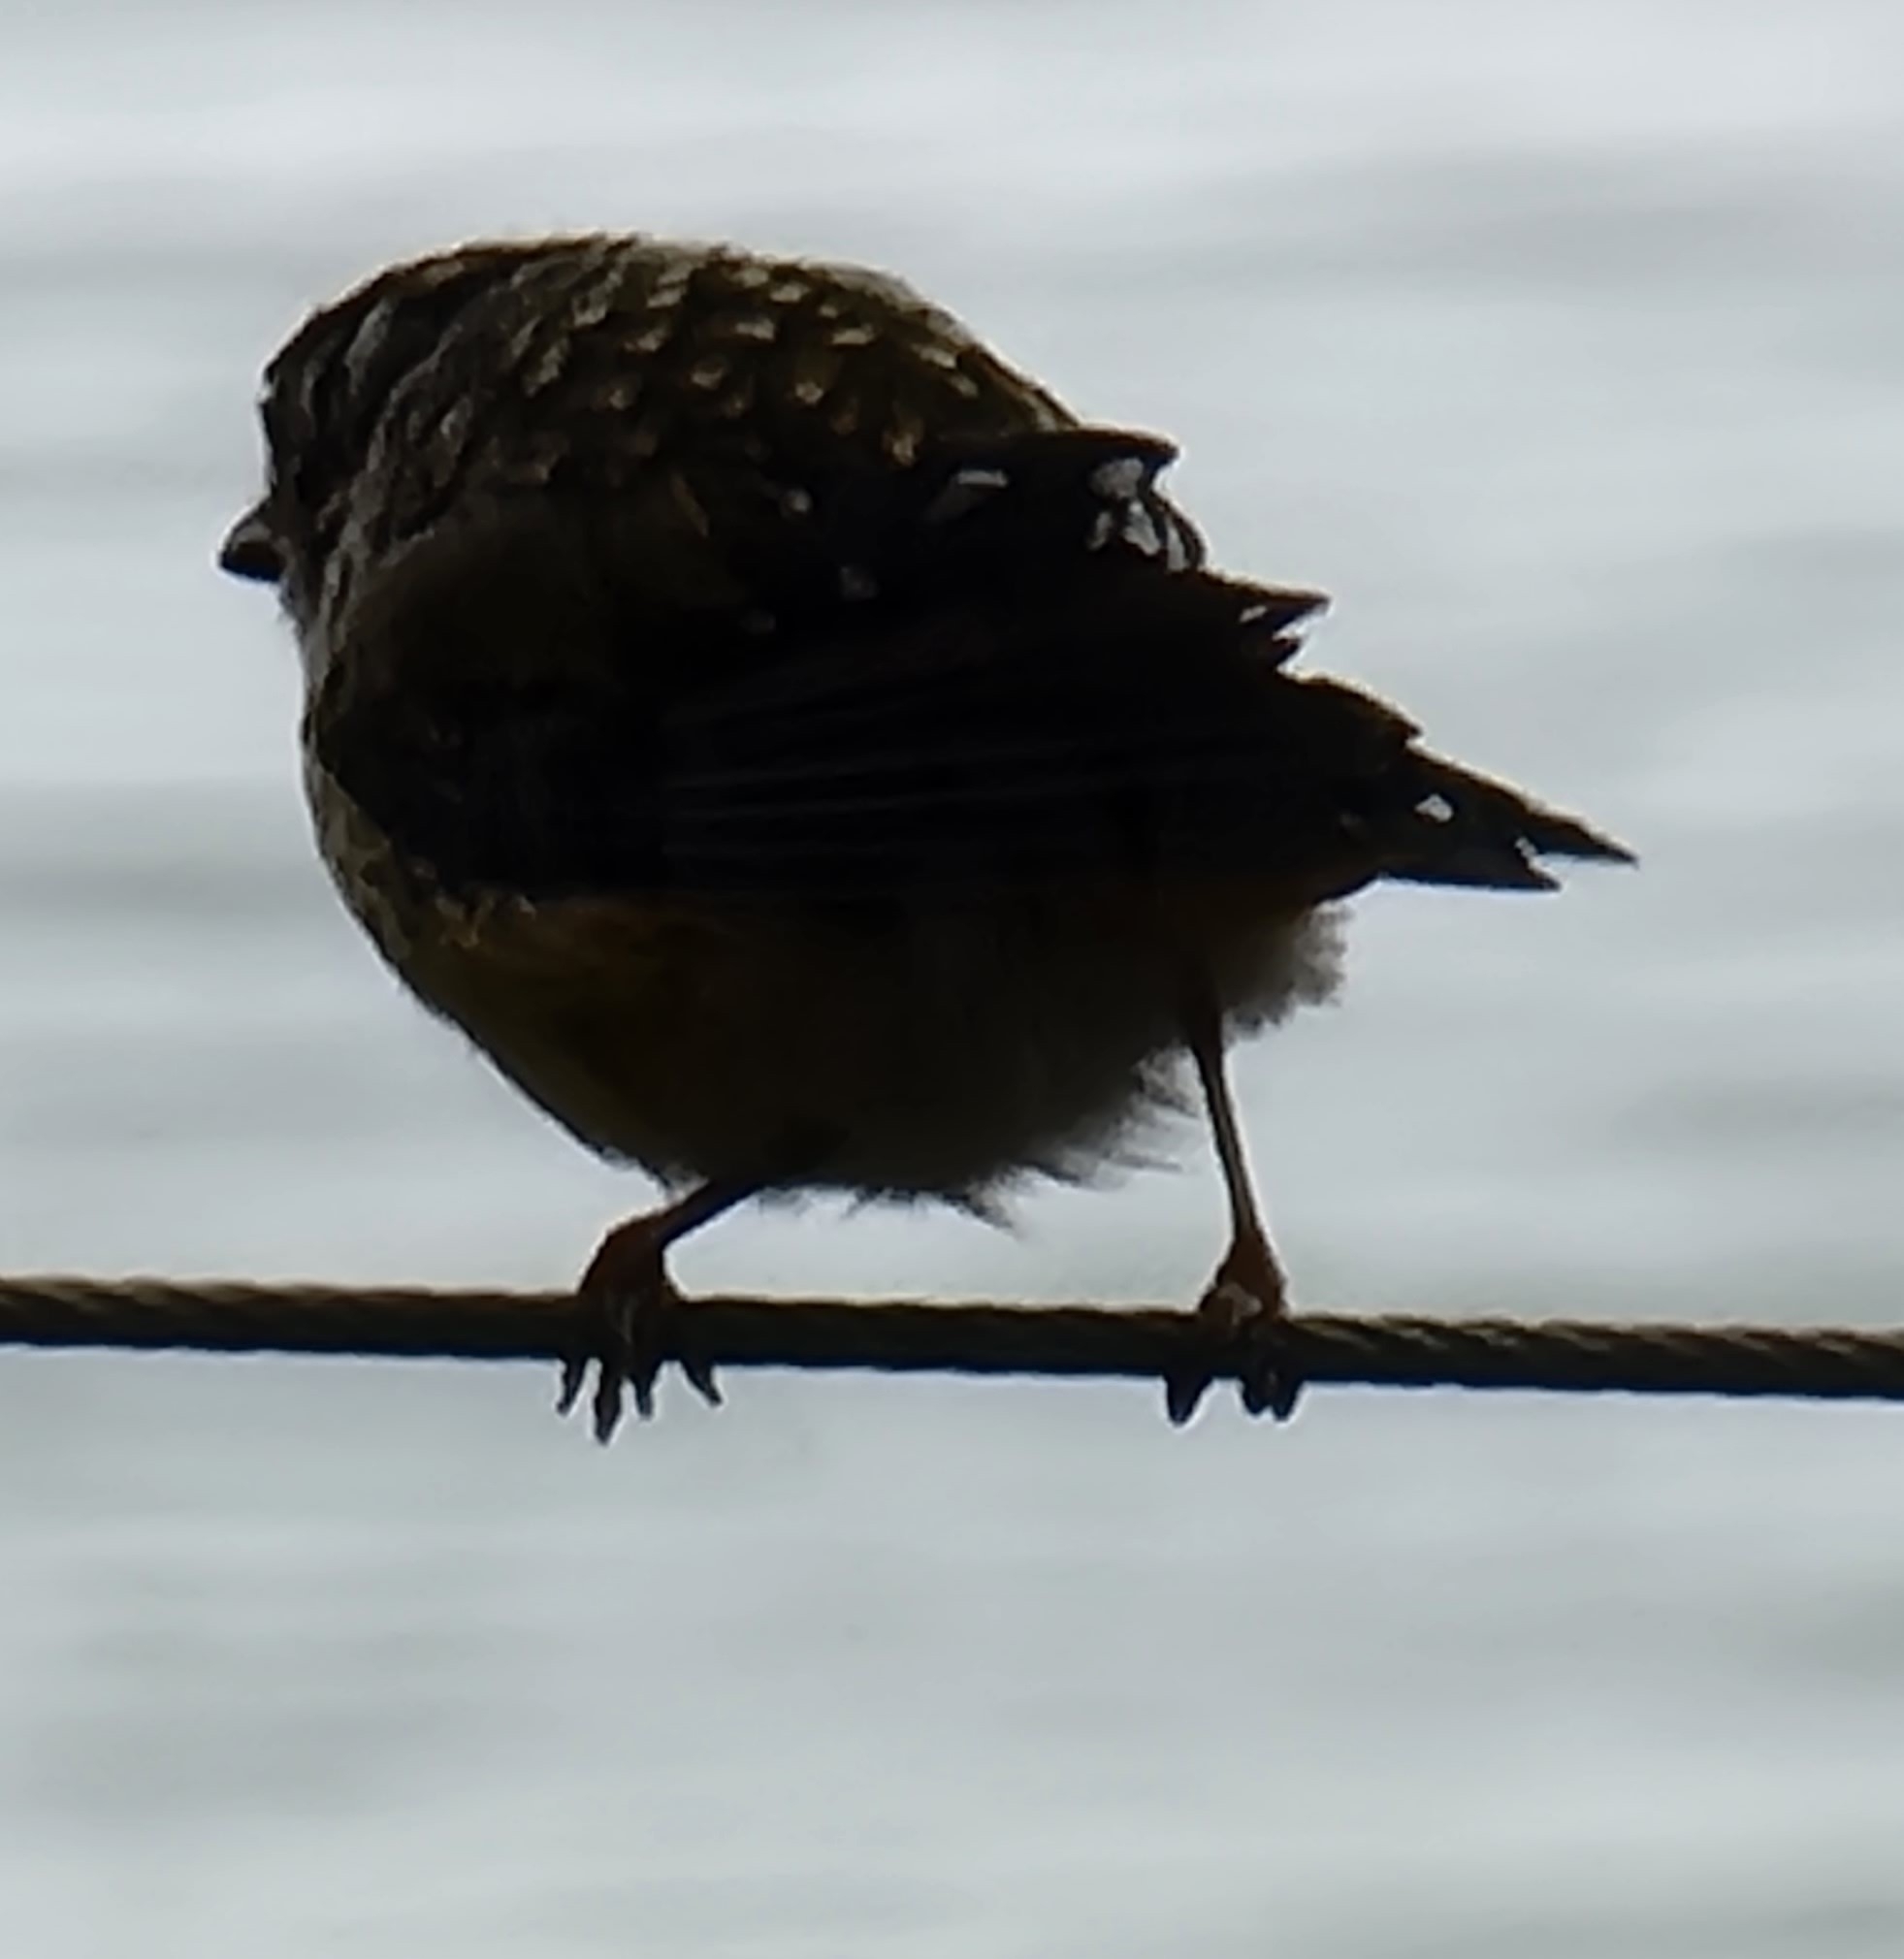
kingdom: Animalia
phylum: Chordata
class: Aves
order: Passeriformes
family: Pardalotidae
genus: Pardalotus
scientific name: Pardalotus punctatus
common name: Spotted pardalote
